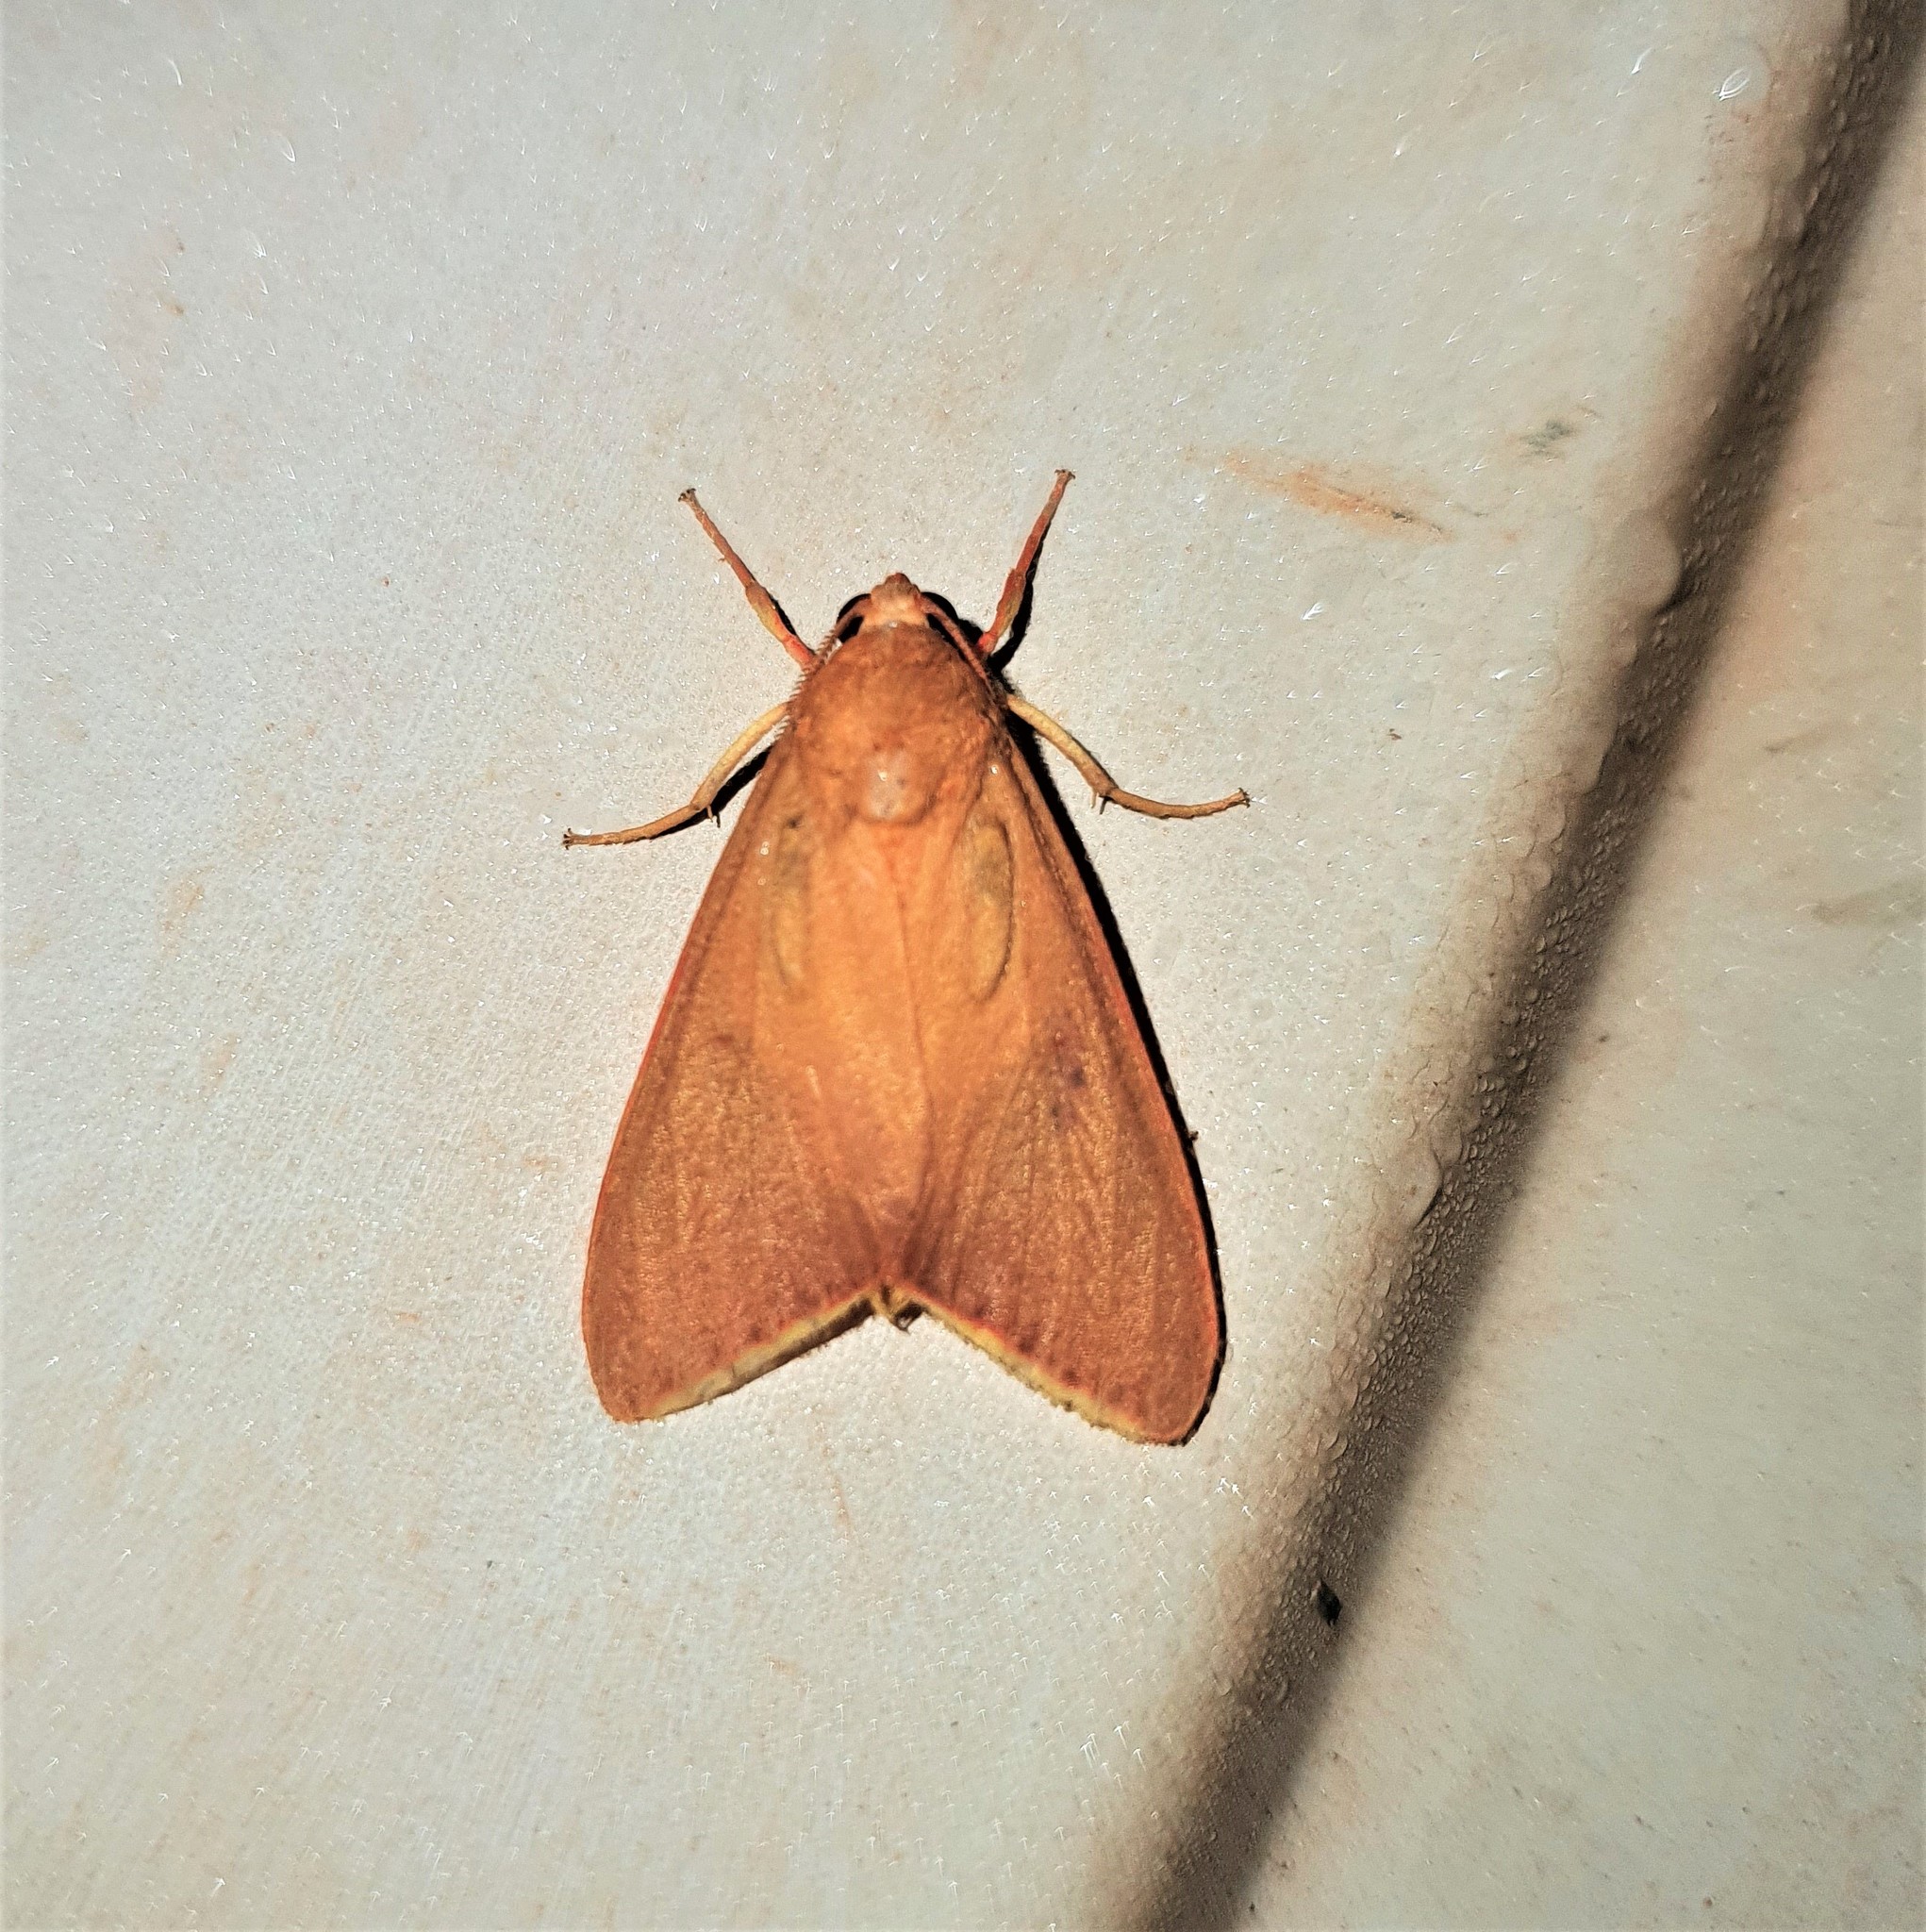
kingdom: Animalia
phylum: Arthropoda
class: Insecta
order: Lepidoptera
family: Erebidae
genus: Haplonerita
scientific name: Haplonerita simplex
